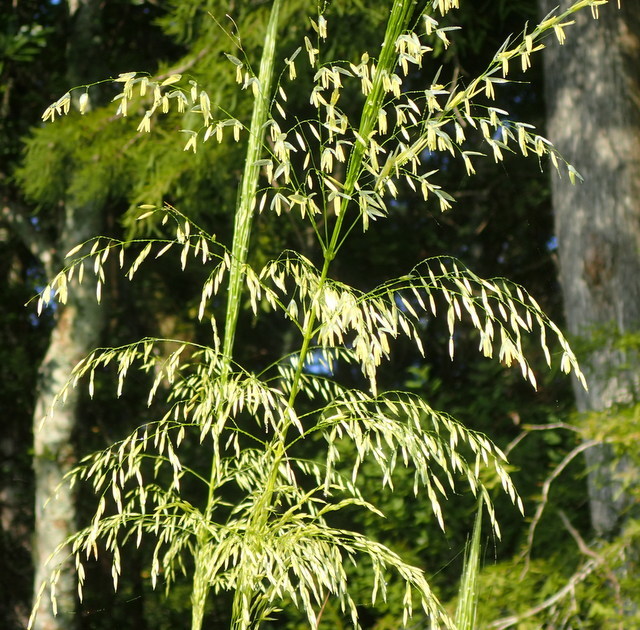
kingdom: Plantae
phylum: Tracheophyta
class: Liliopsida
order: Poales
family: Poaceae
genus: Zizania
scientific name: Zizania aquatica
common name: Annual wildrice
